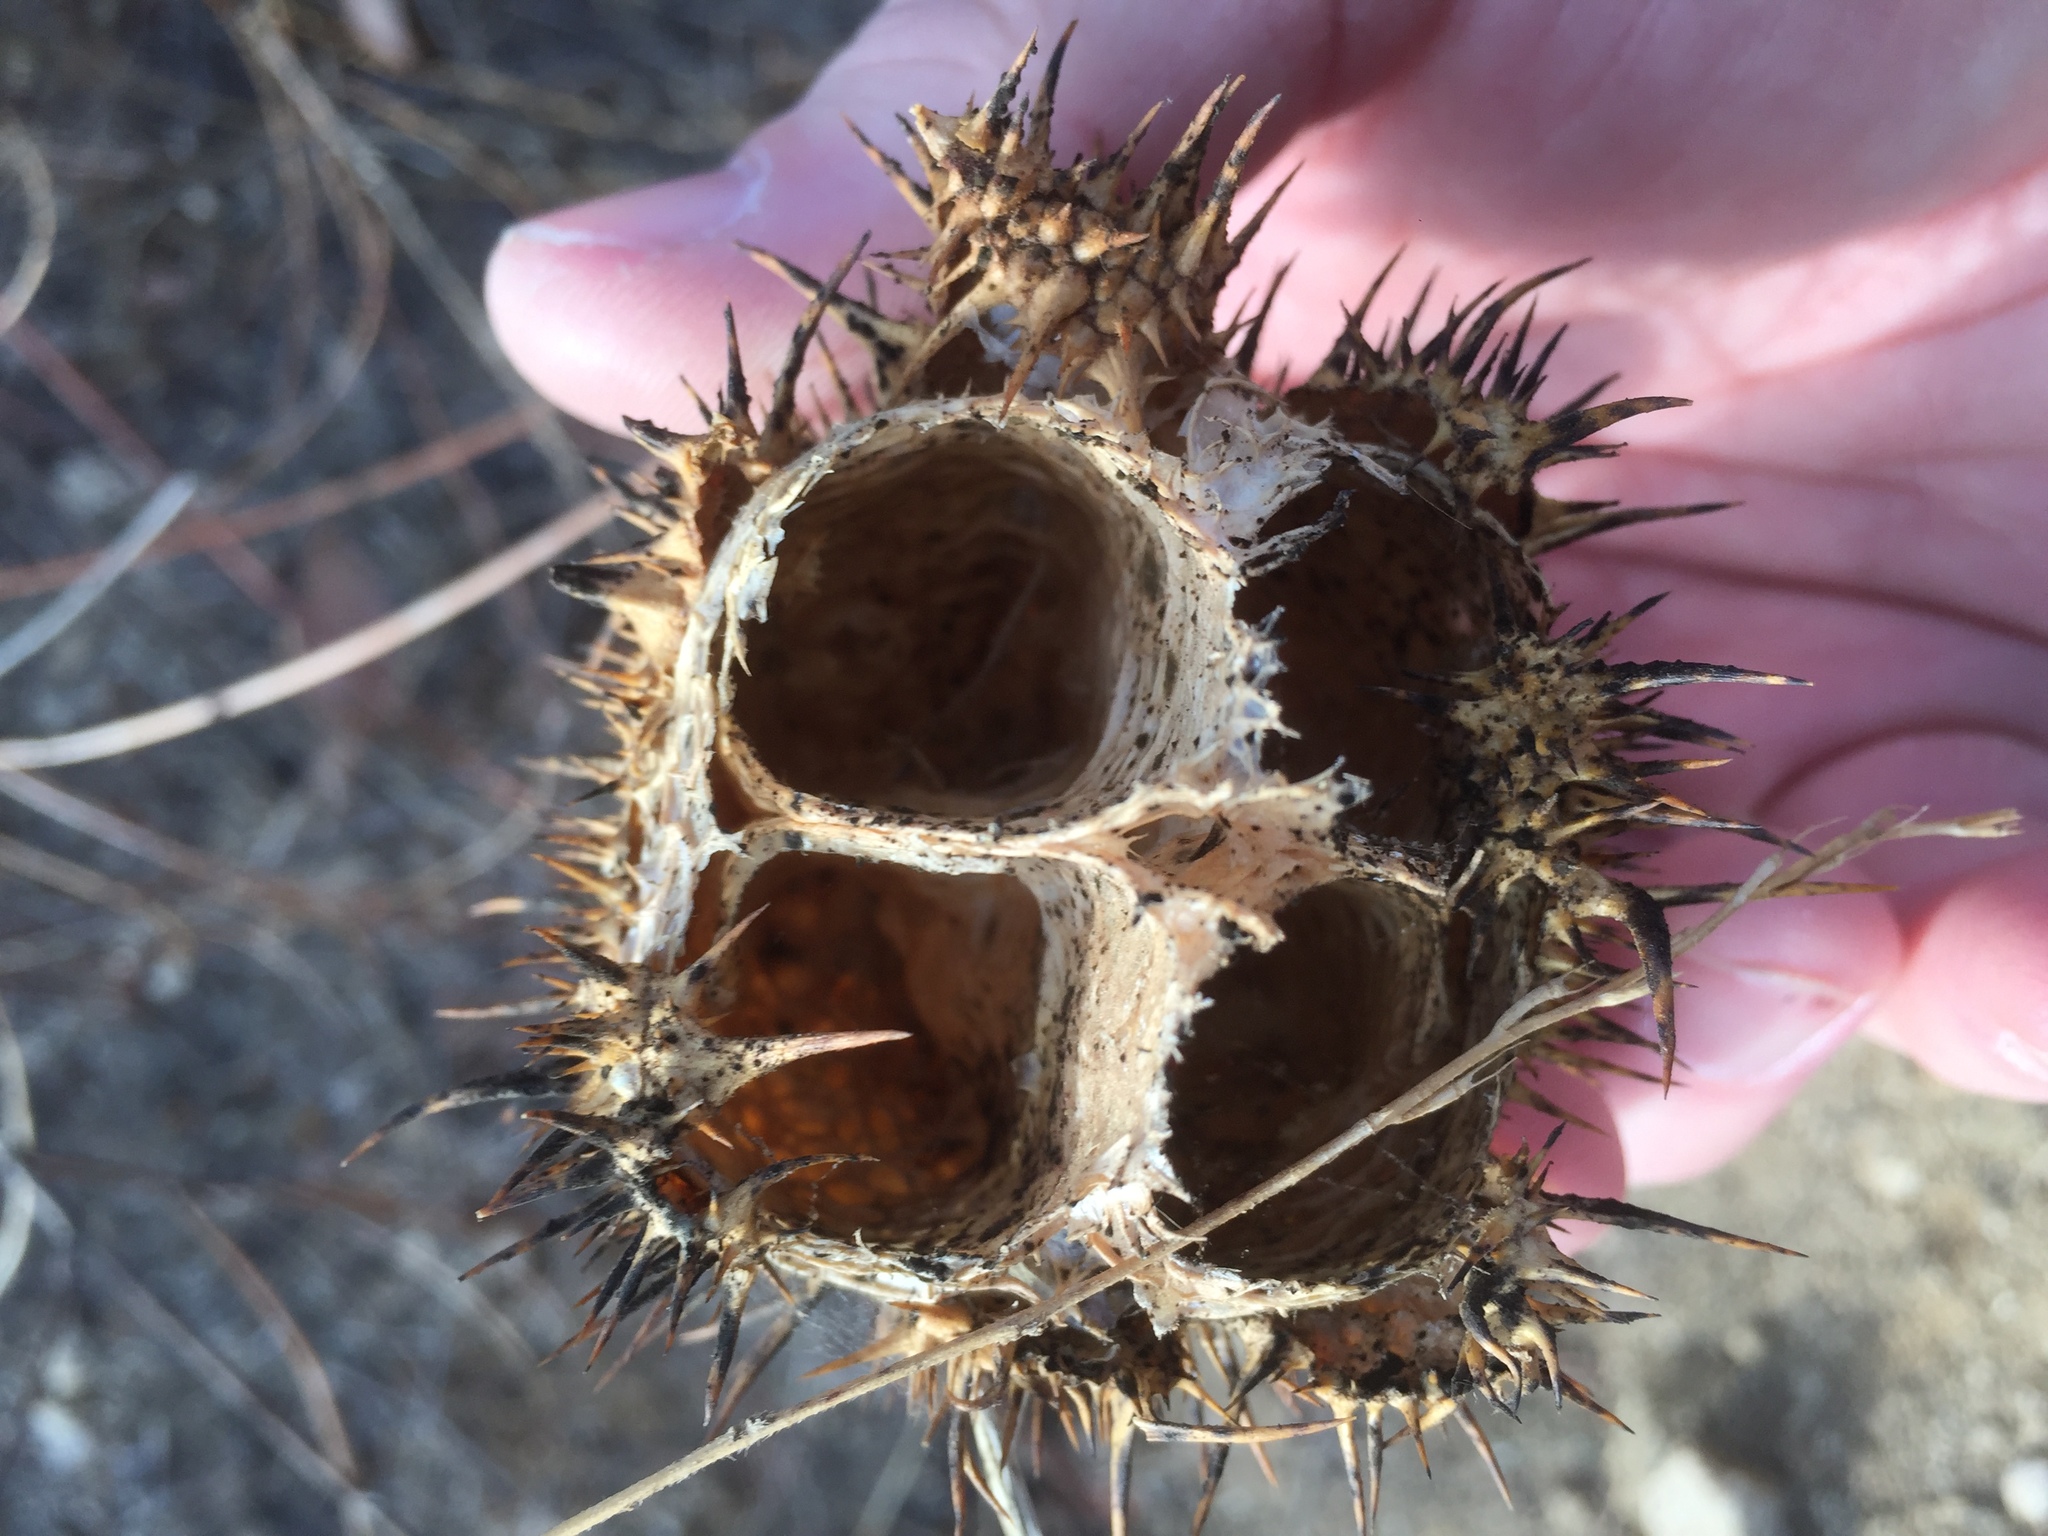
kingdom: Plantae
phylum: Tracheophyta
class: Magnoliopsida
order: Cucurbitales
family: Cucurbitaceae
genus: Marah
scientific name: Marah macrocarpa
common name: Cucamonga manroot
